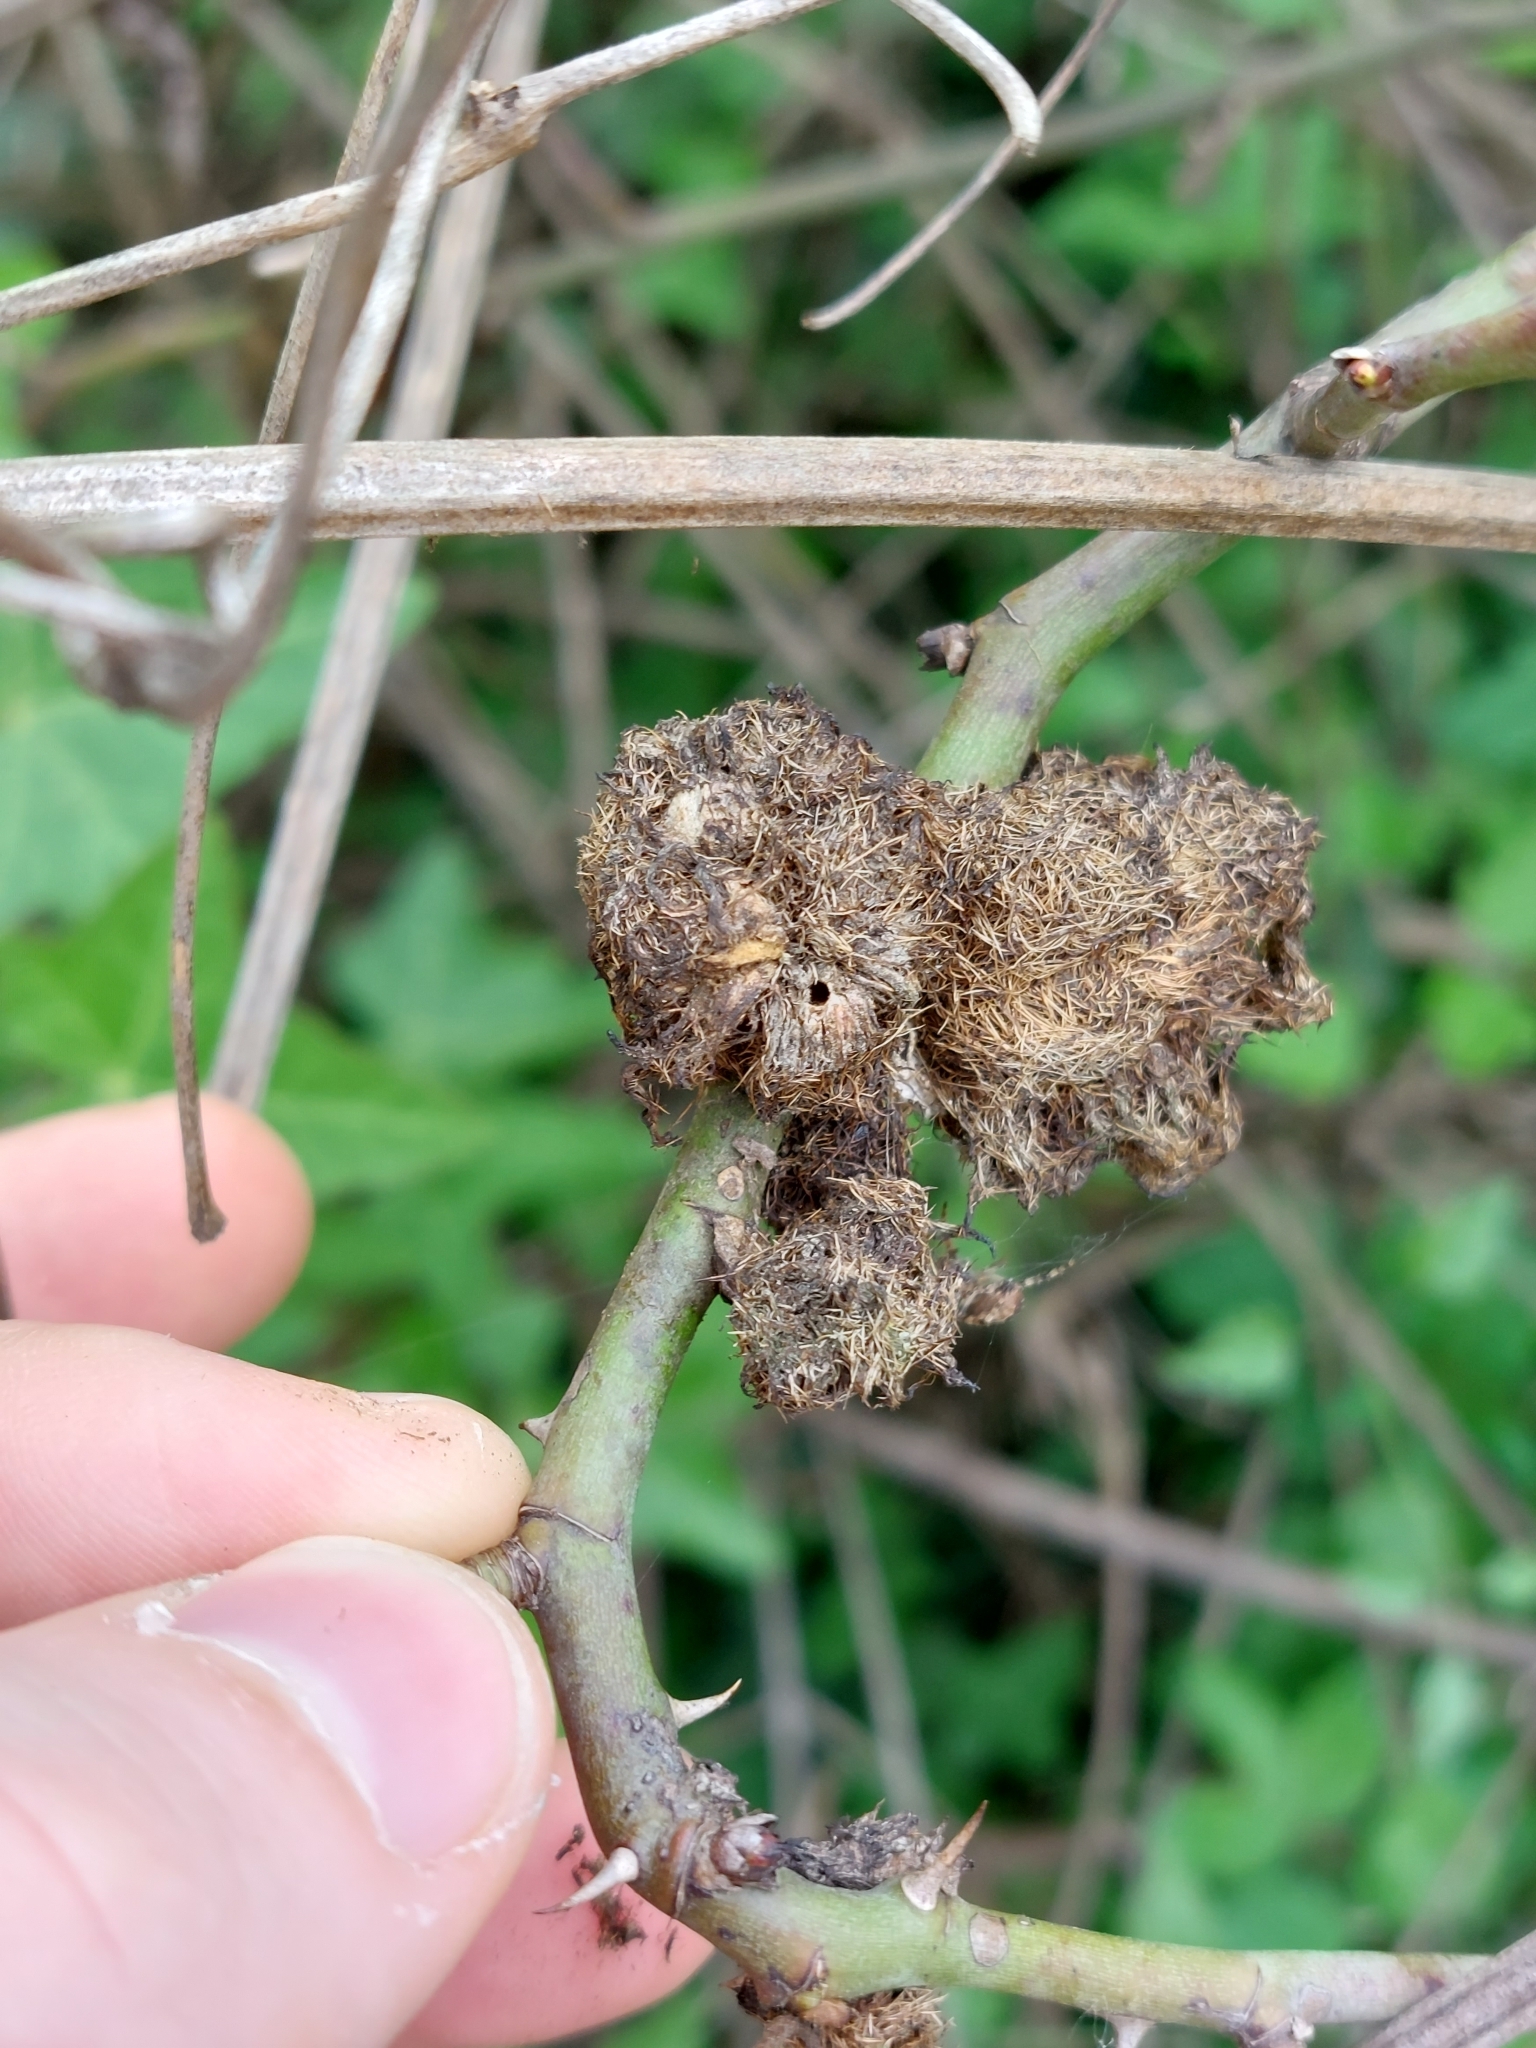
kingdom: Animalia
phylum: Arthropoda
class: Insecta
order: Hymenoptera
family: Cynipidae
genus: Diplolepis
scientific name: Diplolepis rosae
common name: Bedeguar gall
